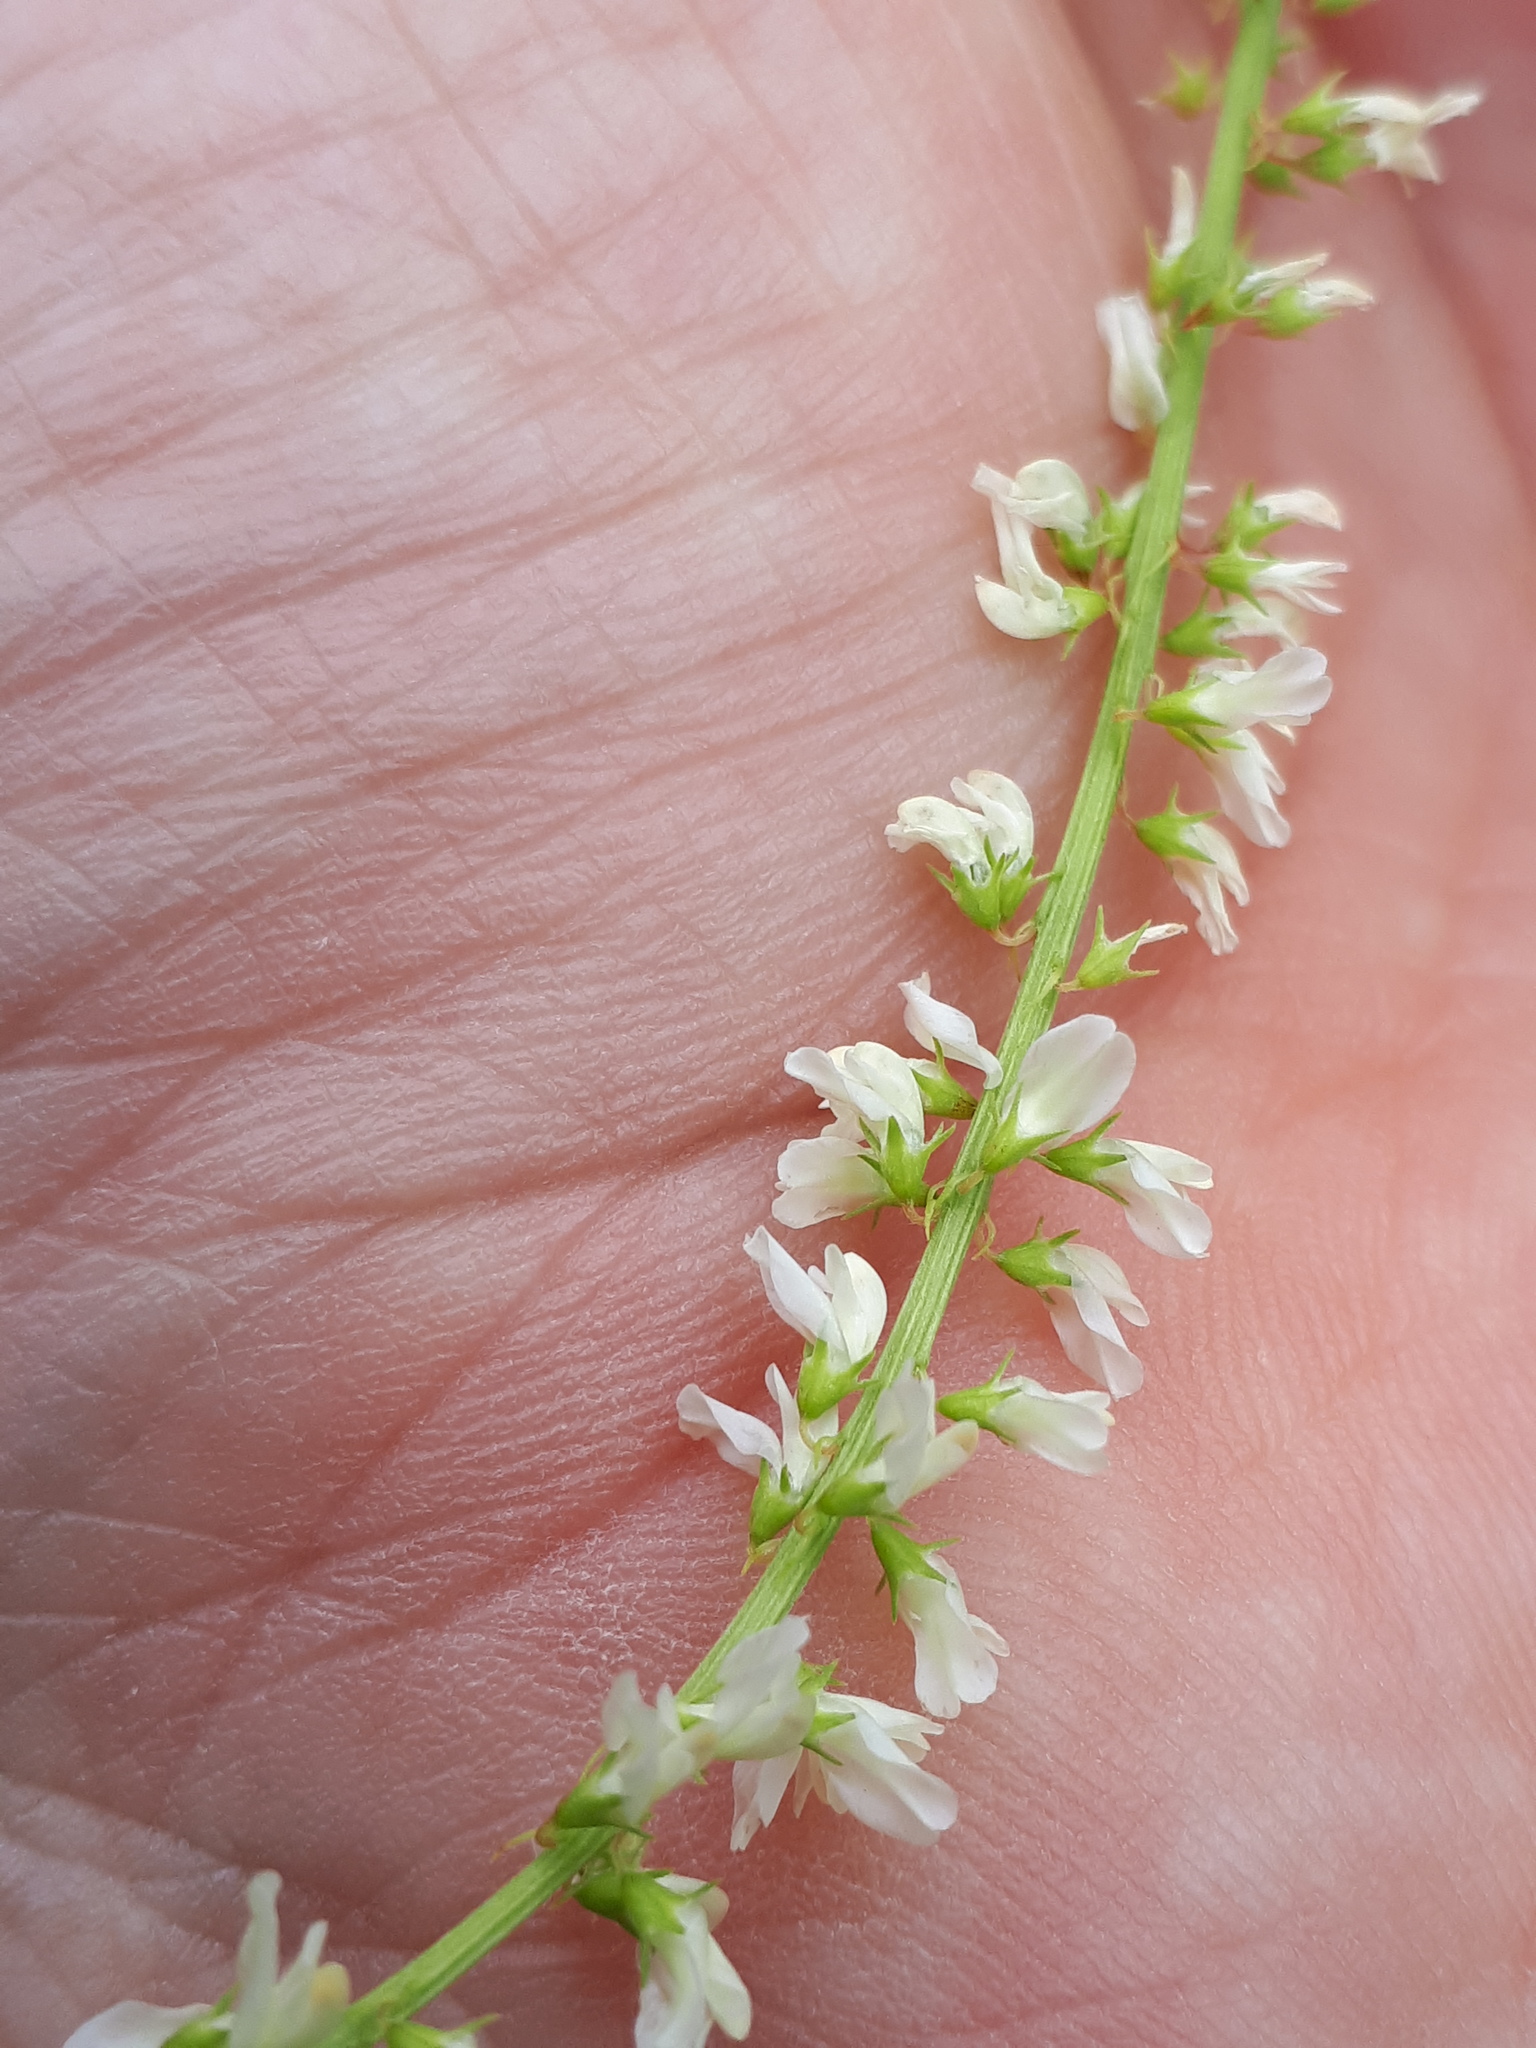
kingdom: Plantae
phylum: Tracheophyta
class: Magnoliopsida
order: Fabales
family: Fabaceae
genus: Melilotus
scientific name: Melilotus albus
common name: White melilot
